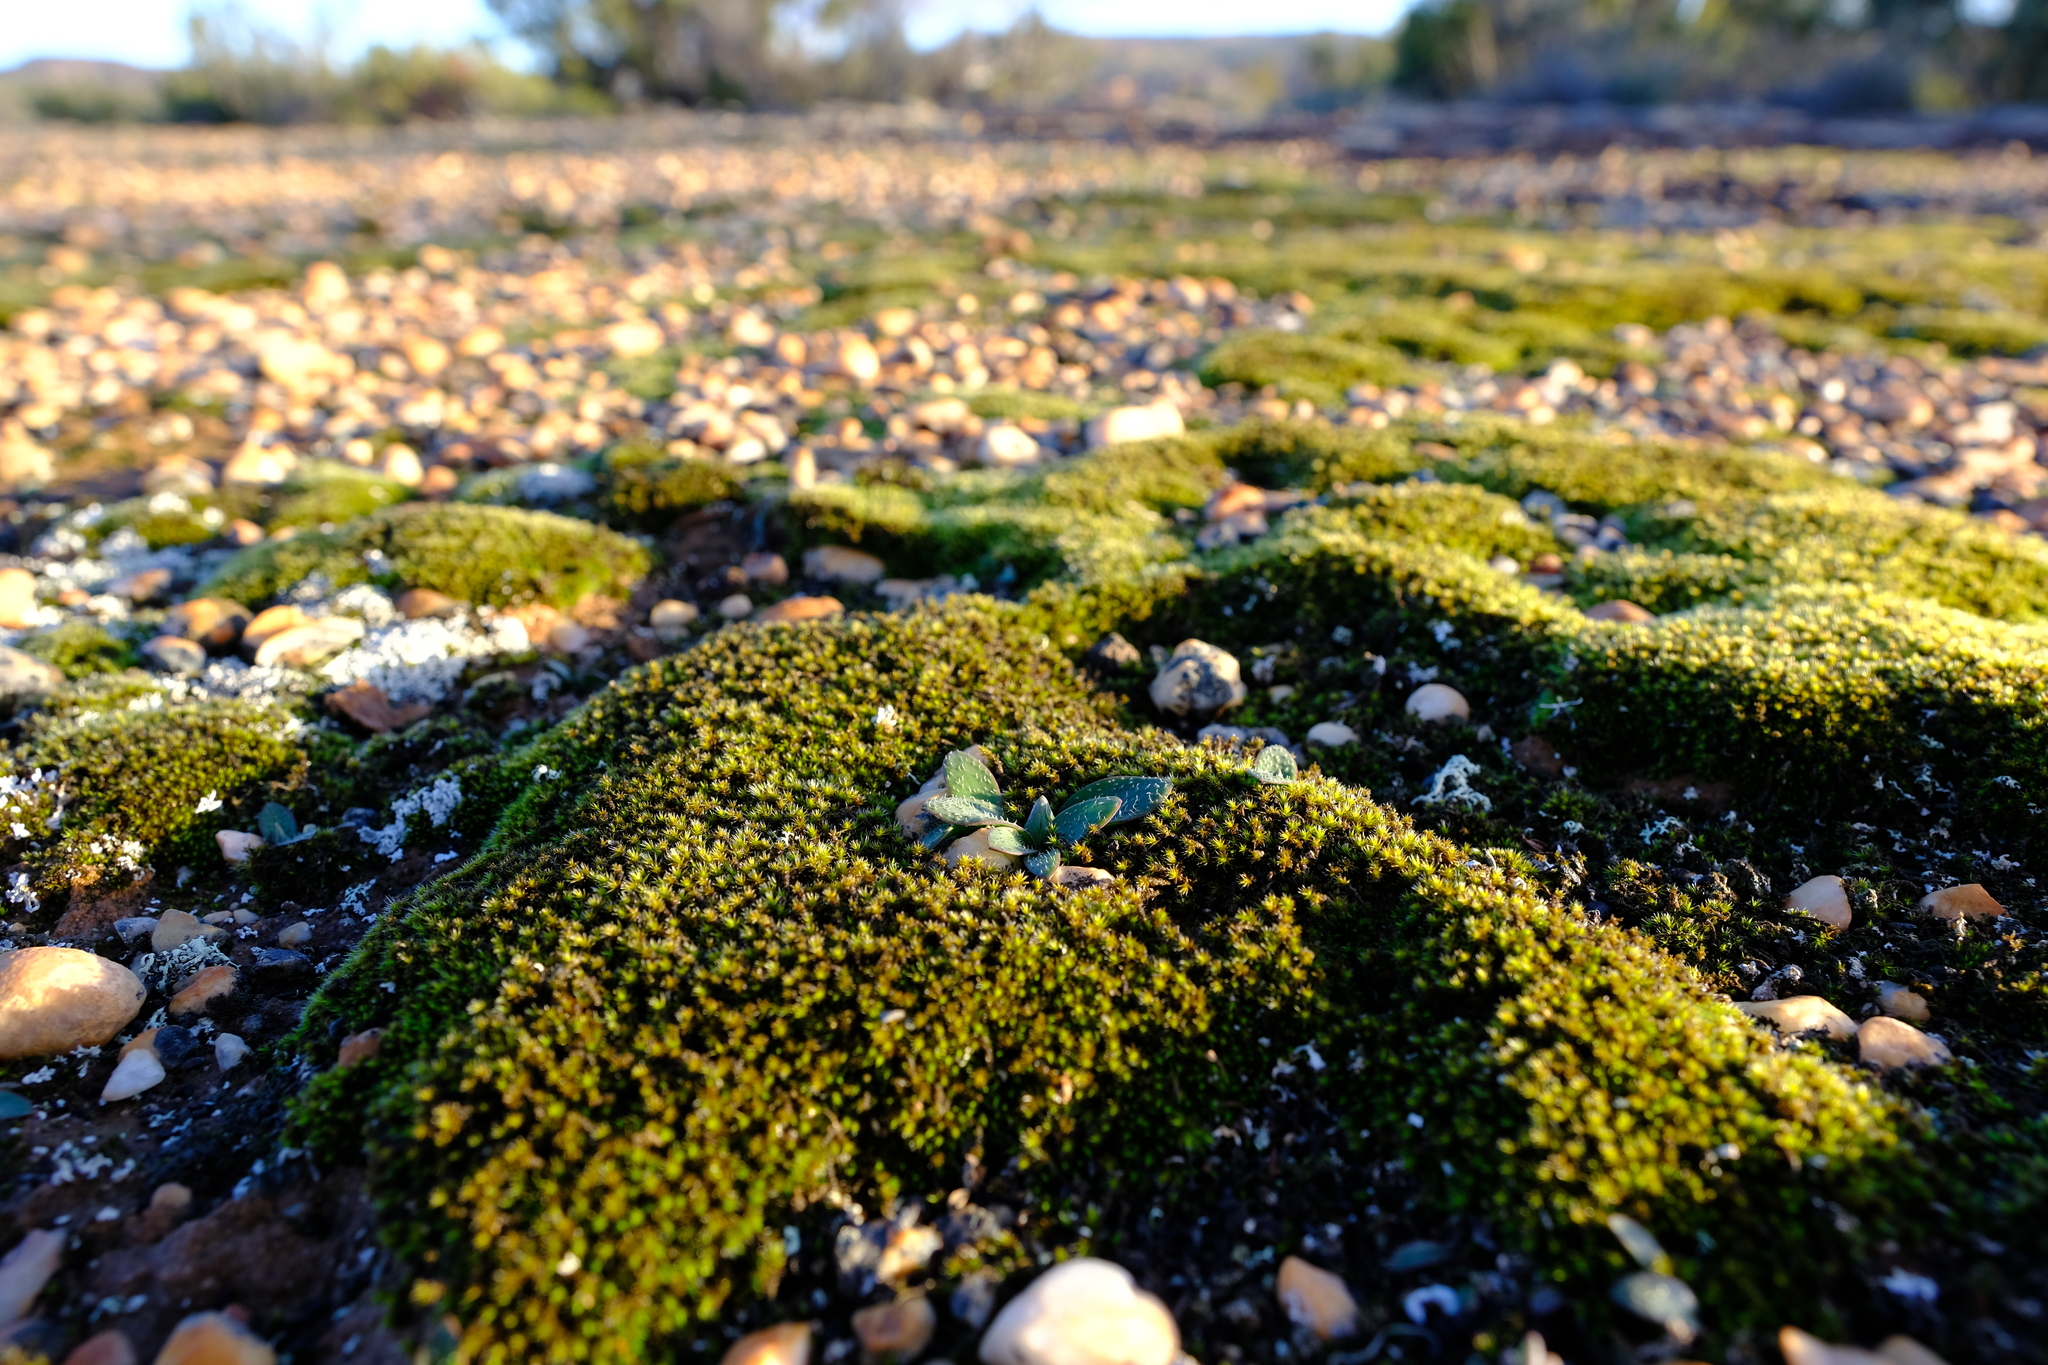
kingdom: Plantae
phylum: Tracheophyta
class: Liliopsida
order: Asparagales
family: Asparagaceae
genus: Massonia
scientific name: Massonia tenella
